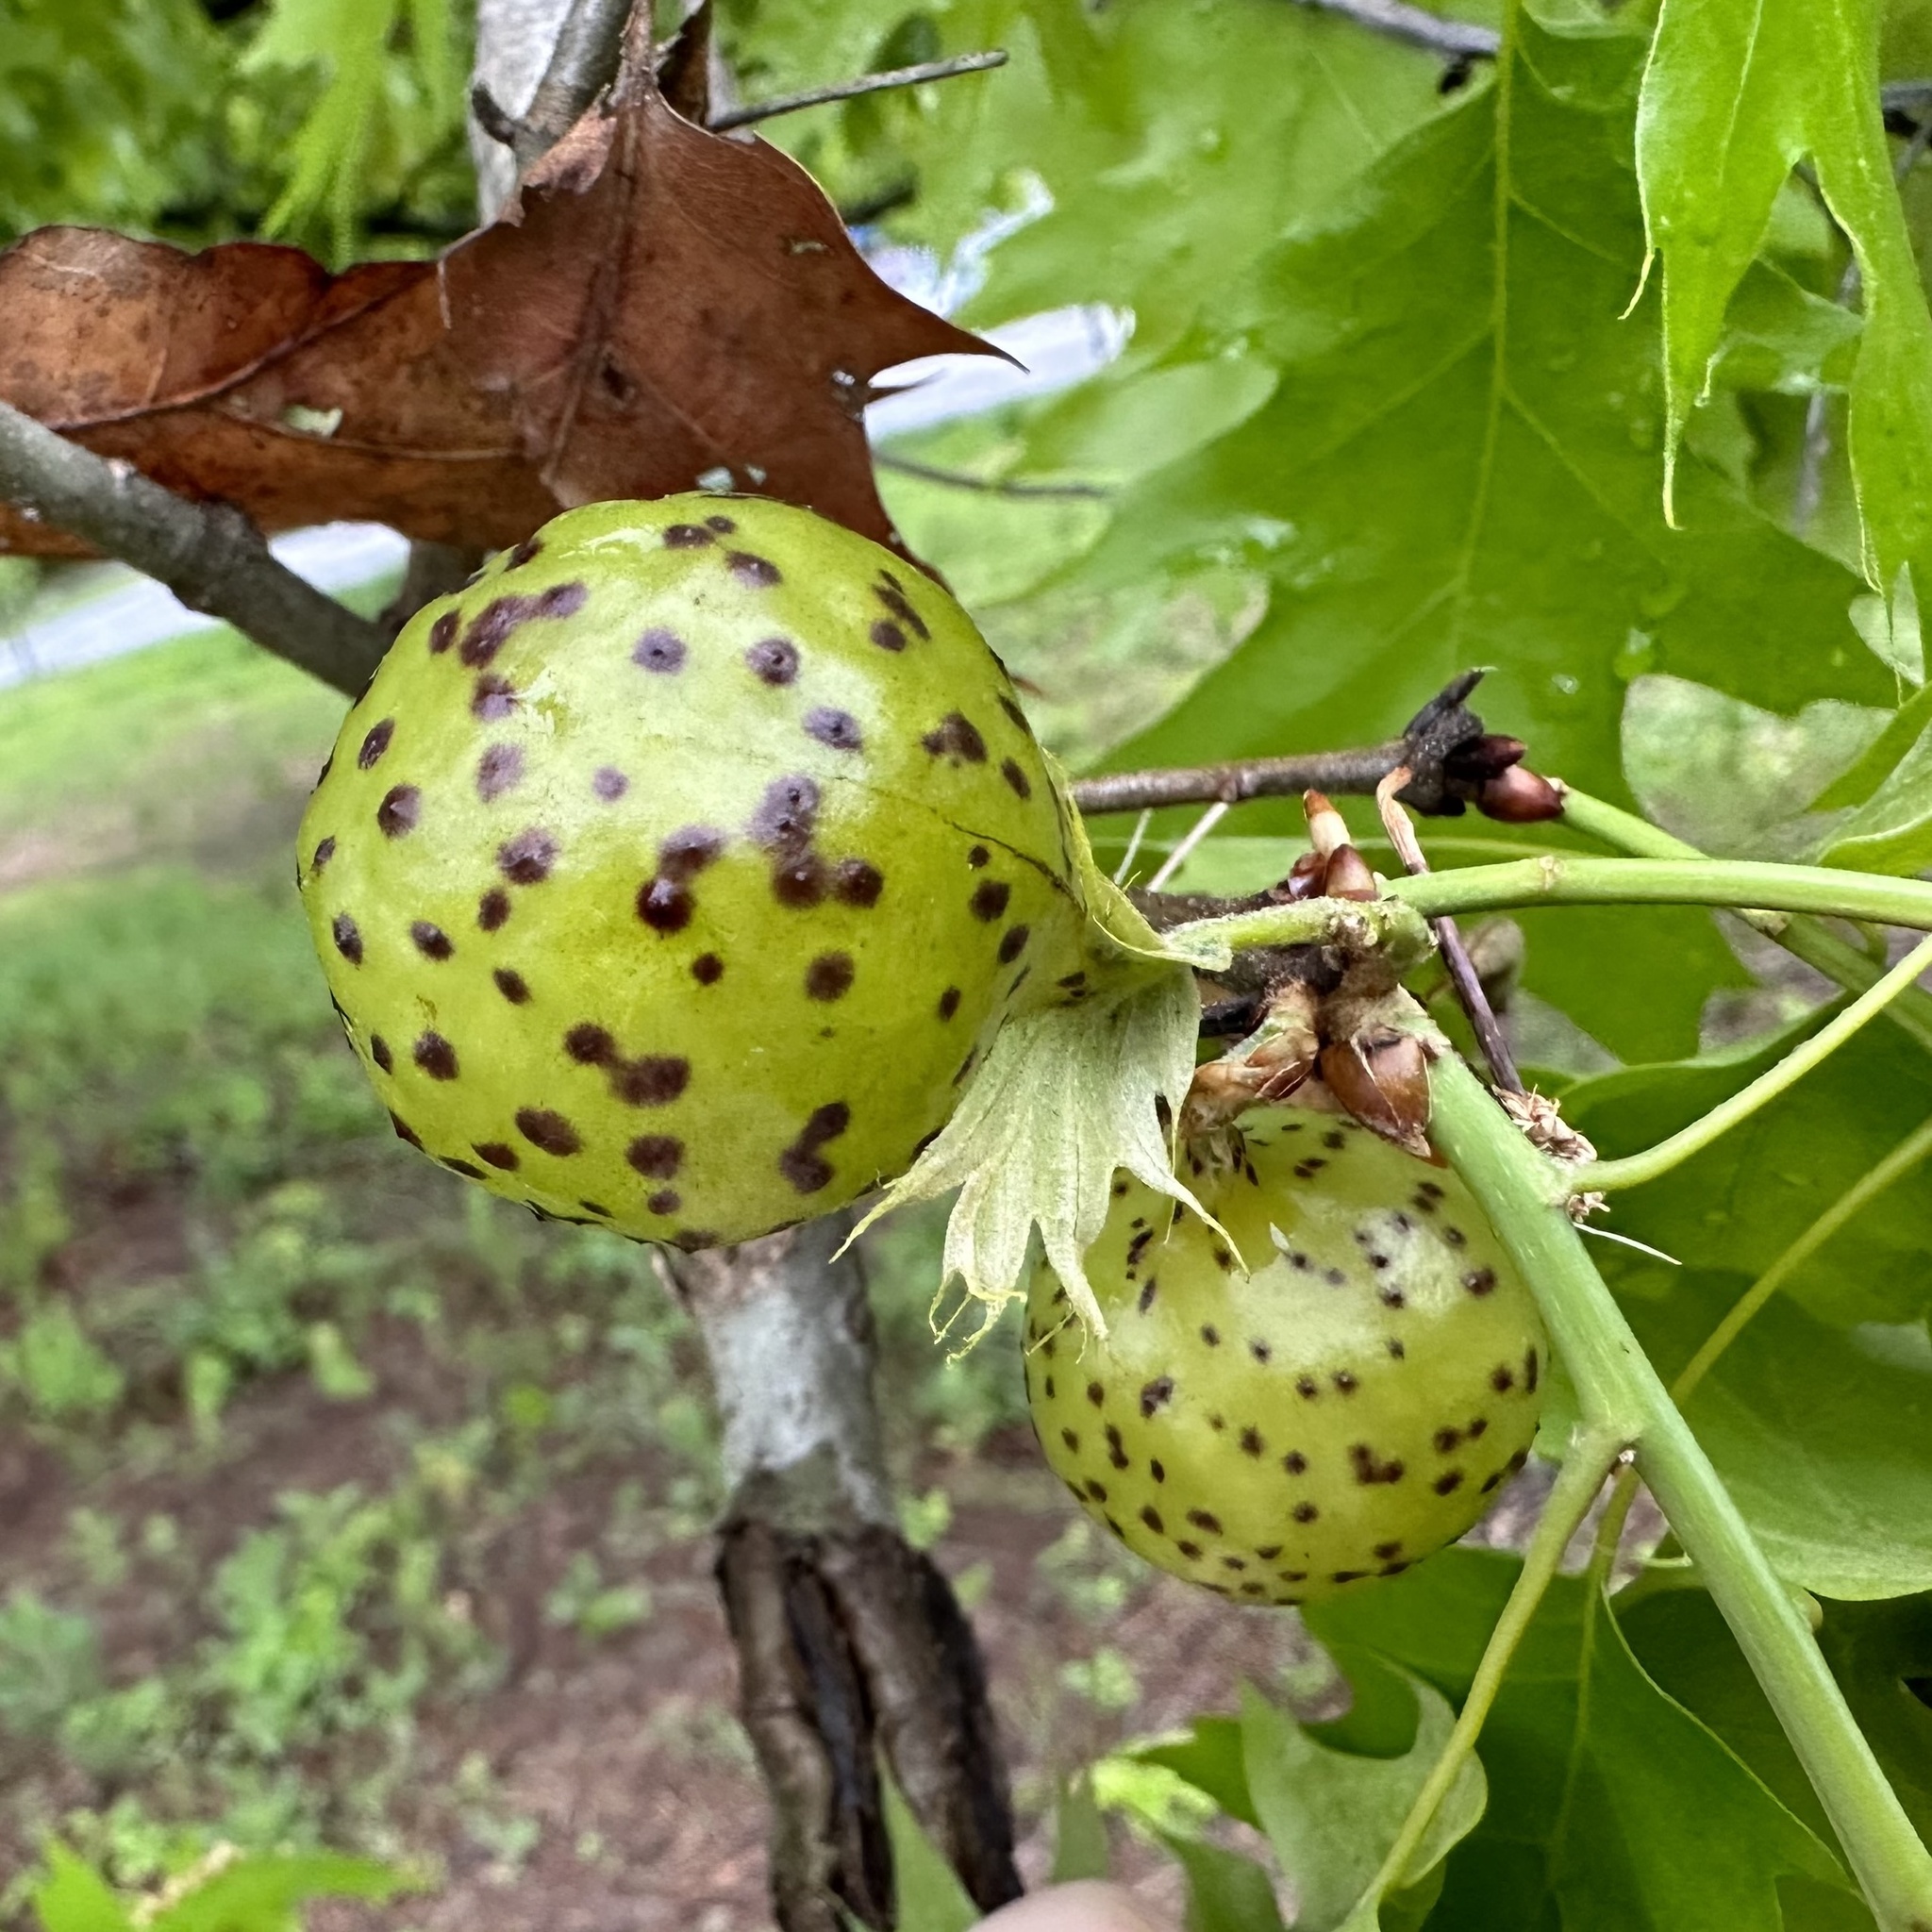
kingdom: Animalia
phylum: Arthropoda
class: Insecta
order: Hymenoptera
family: Cynipidae
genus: Amphibolips
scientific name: Amphibolips
